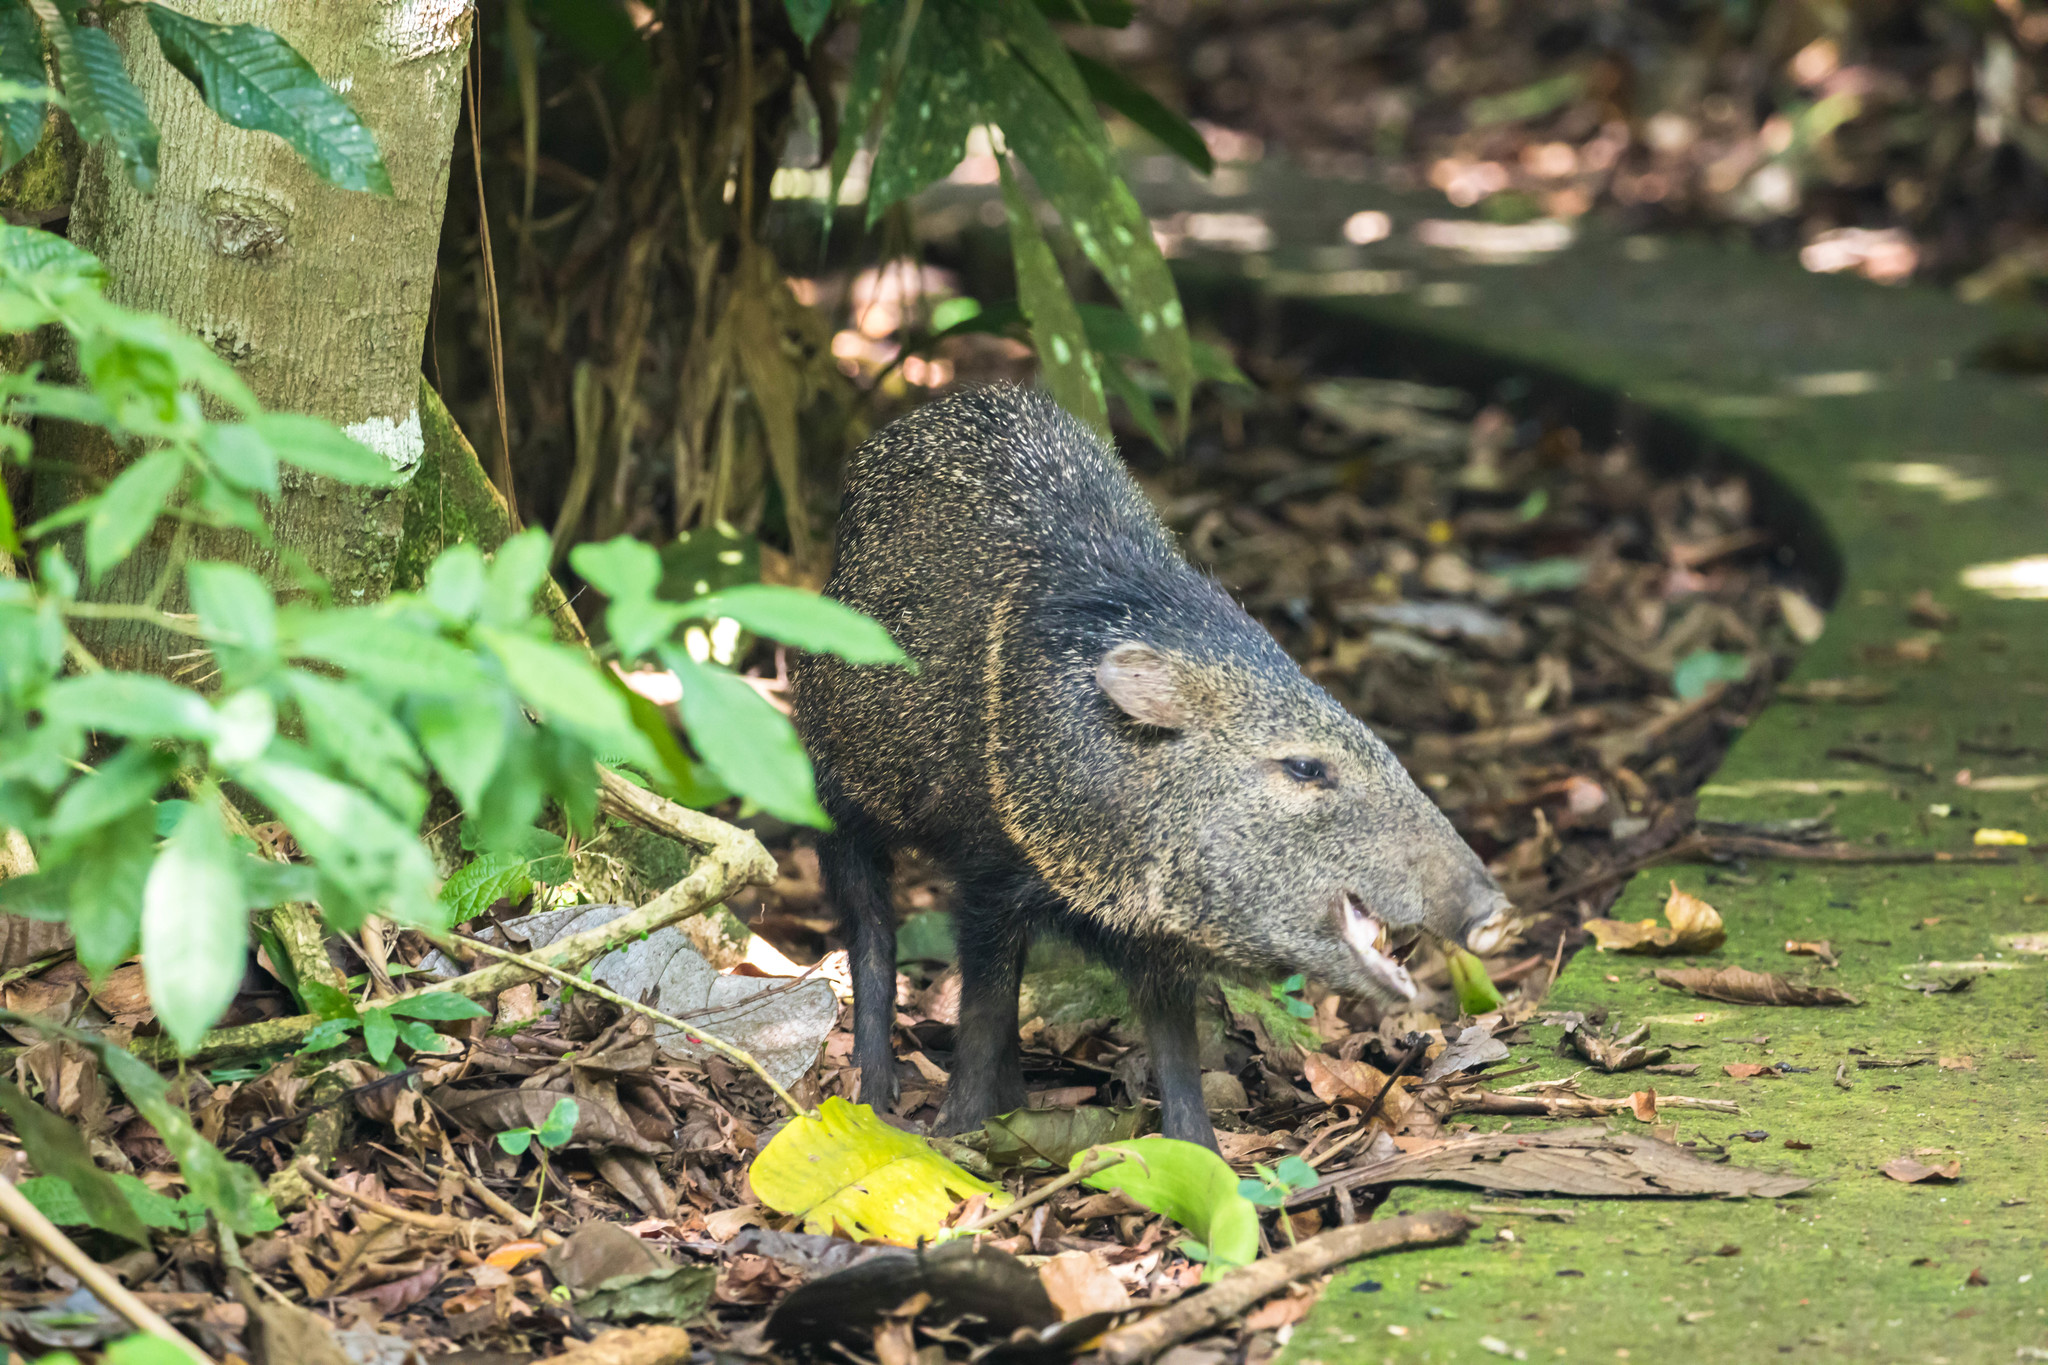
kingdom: Animalia
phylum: Chordata
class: Mammalia
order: Artiodactyla
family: Tayassuidae
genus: Pecari
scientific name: Pecari tajacu
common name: Collared peccary
